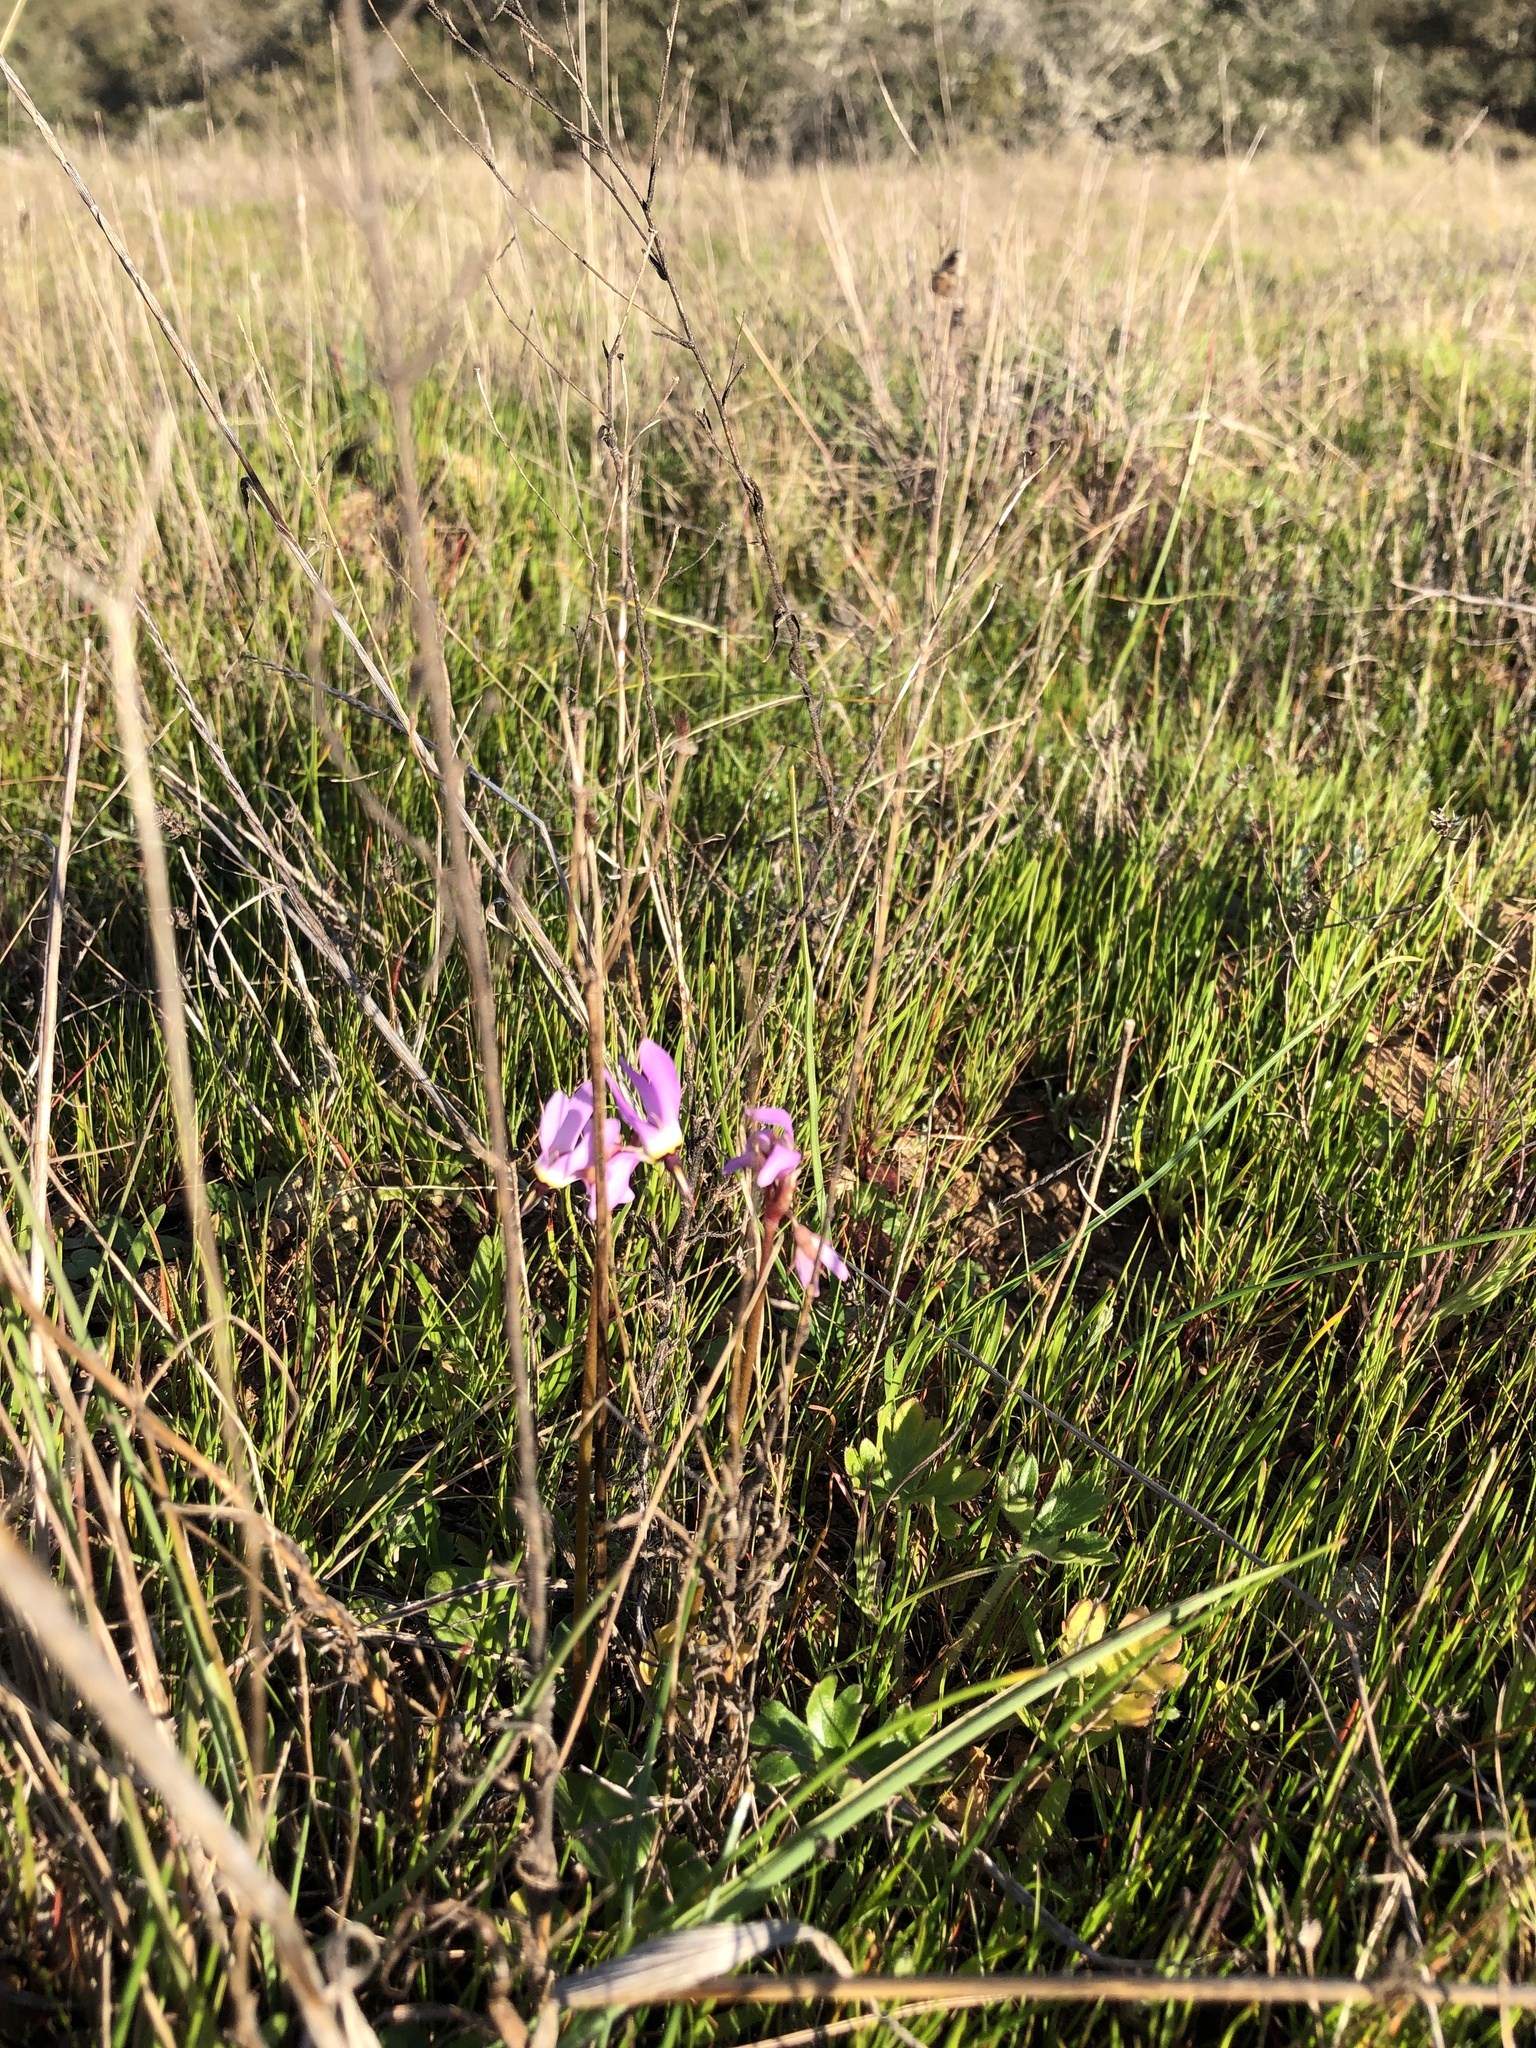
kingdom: Plantae
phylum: Tracheophyta
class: Magnoliopsida
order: Ericales
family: Primulaceae
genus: Dodecatheon
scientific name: Dodecatheon hendersonii
